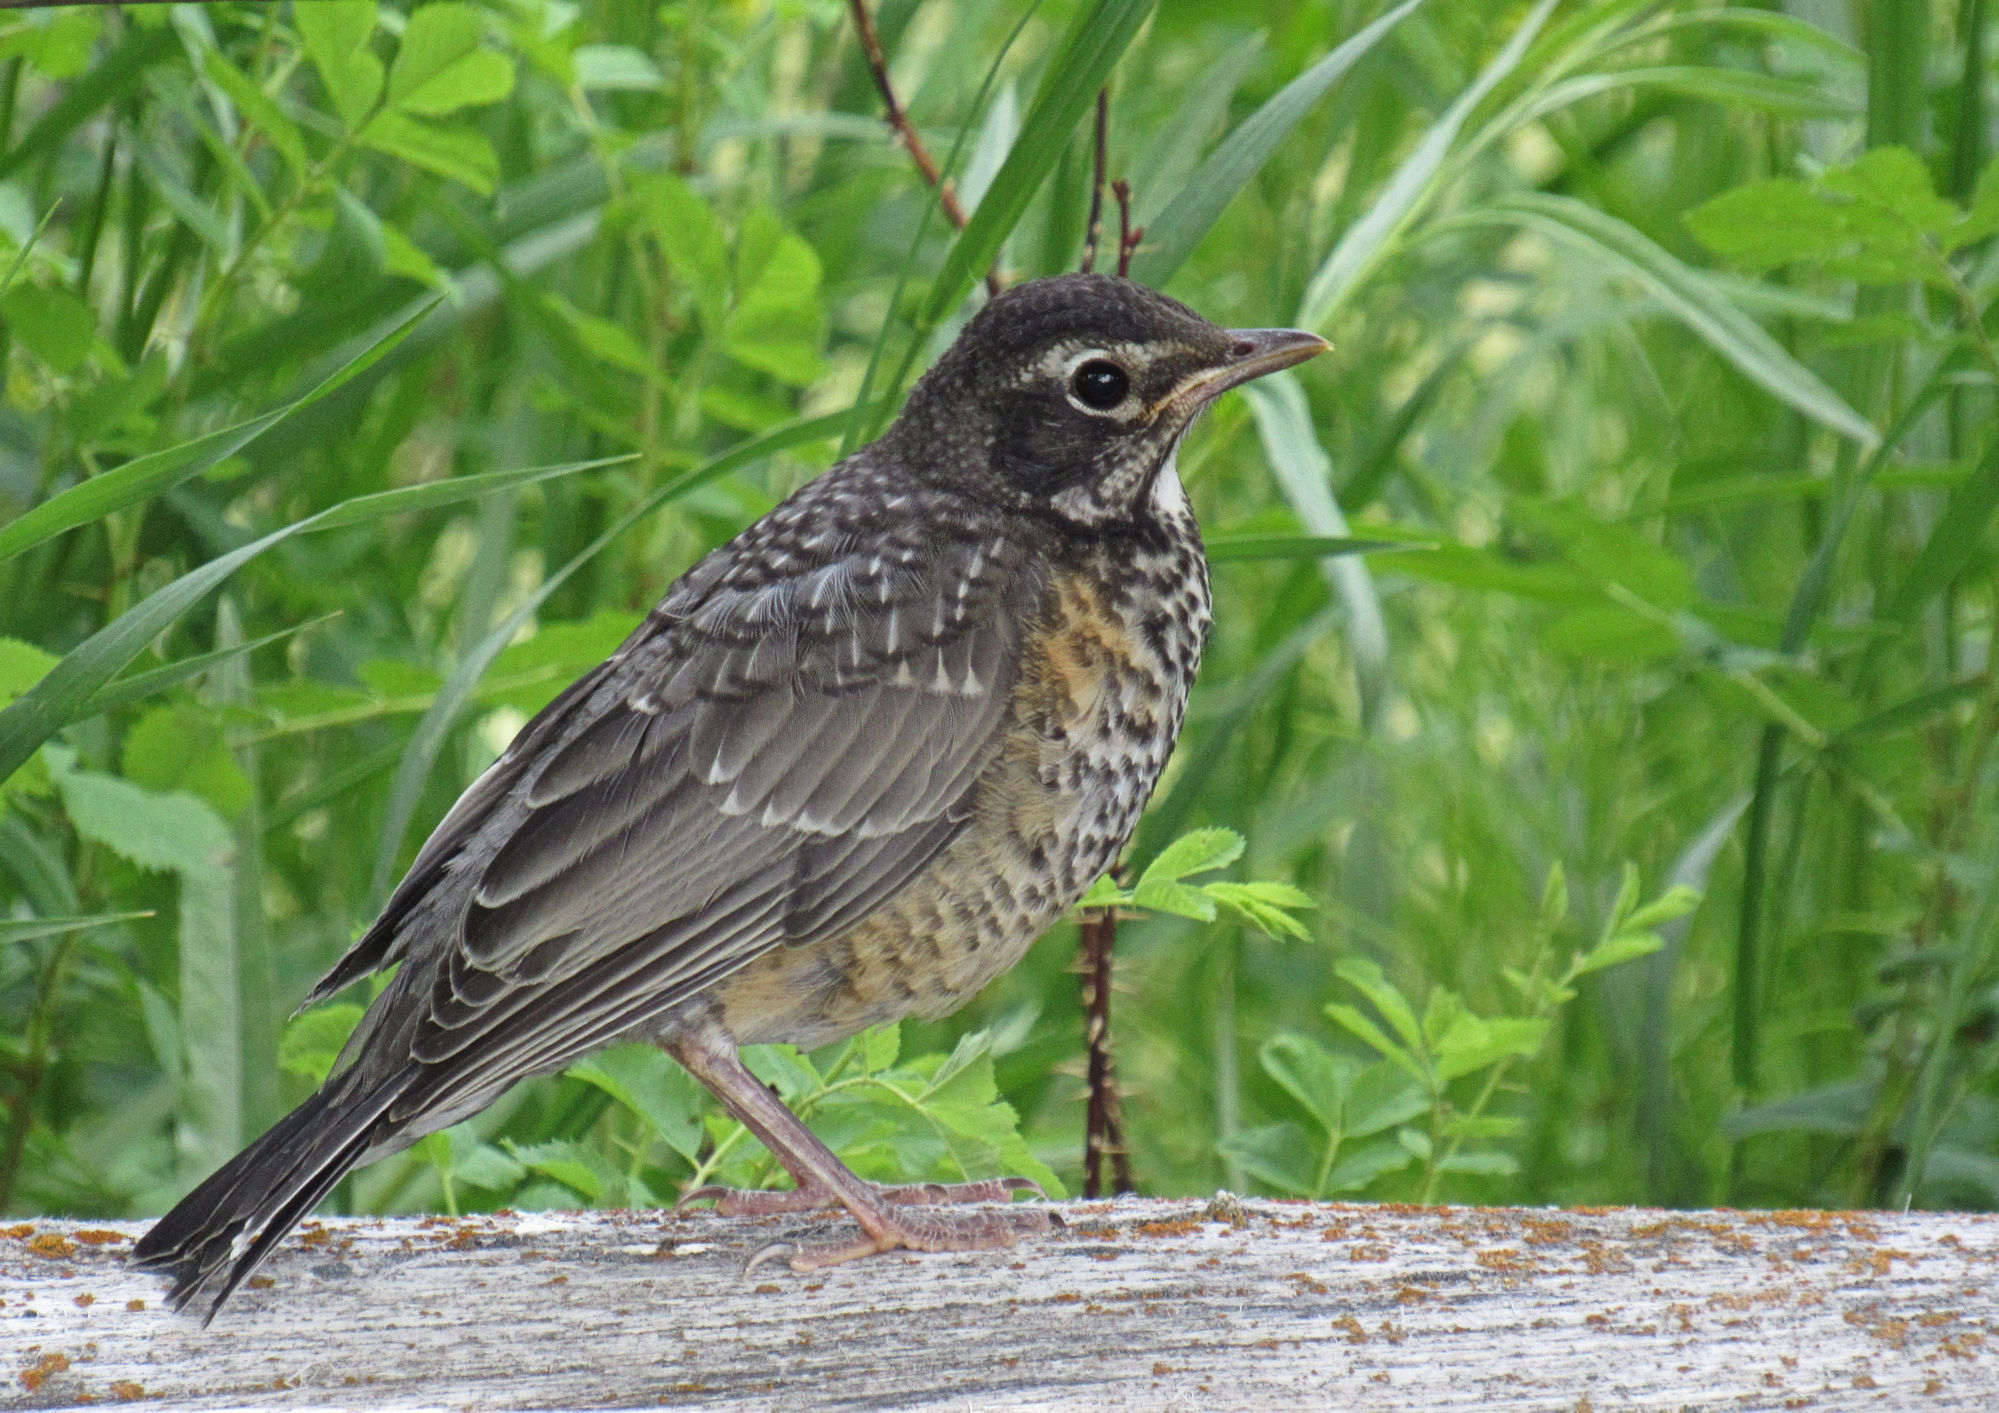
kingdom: Animalia
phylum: Chordata
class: Aves
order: Passeriformes
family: Turdidae
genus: Turdus
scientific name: Turdus migratorius
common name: American robin
